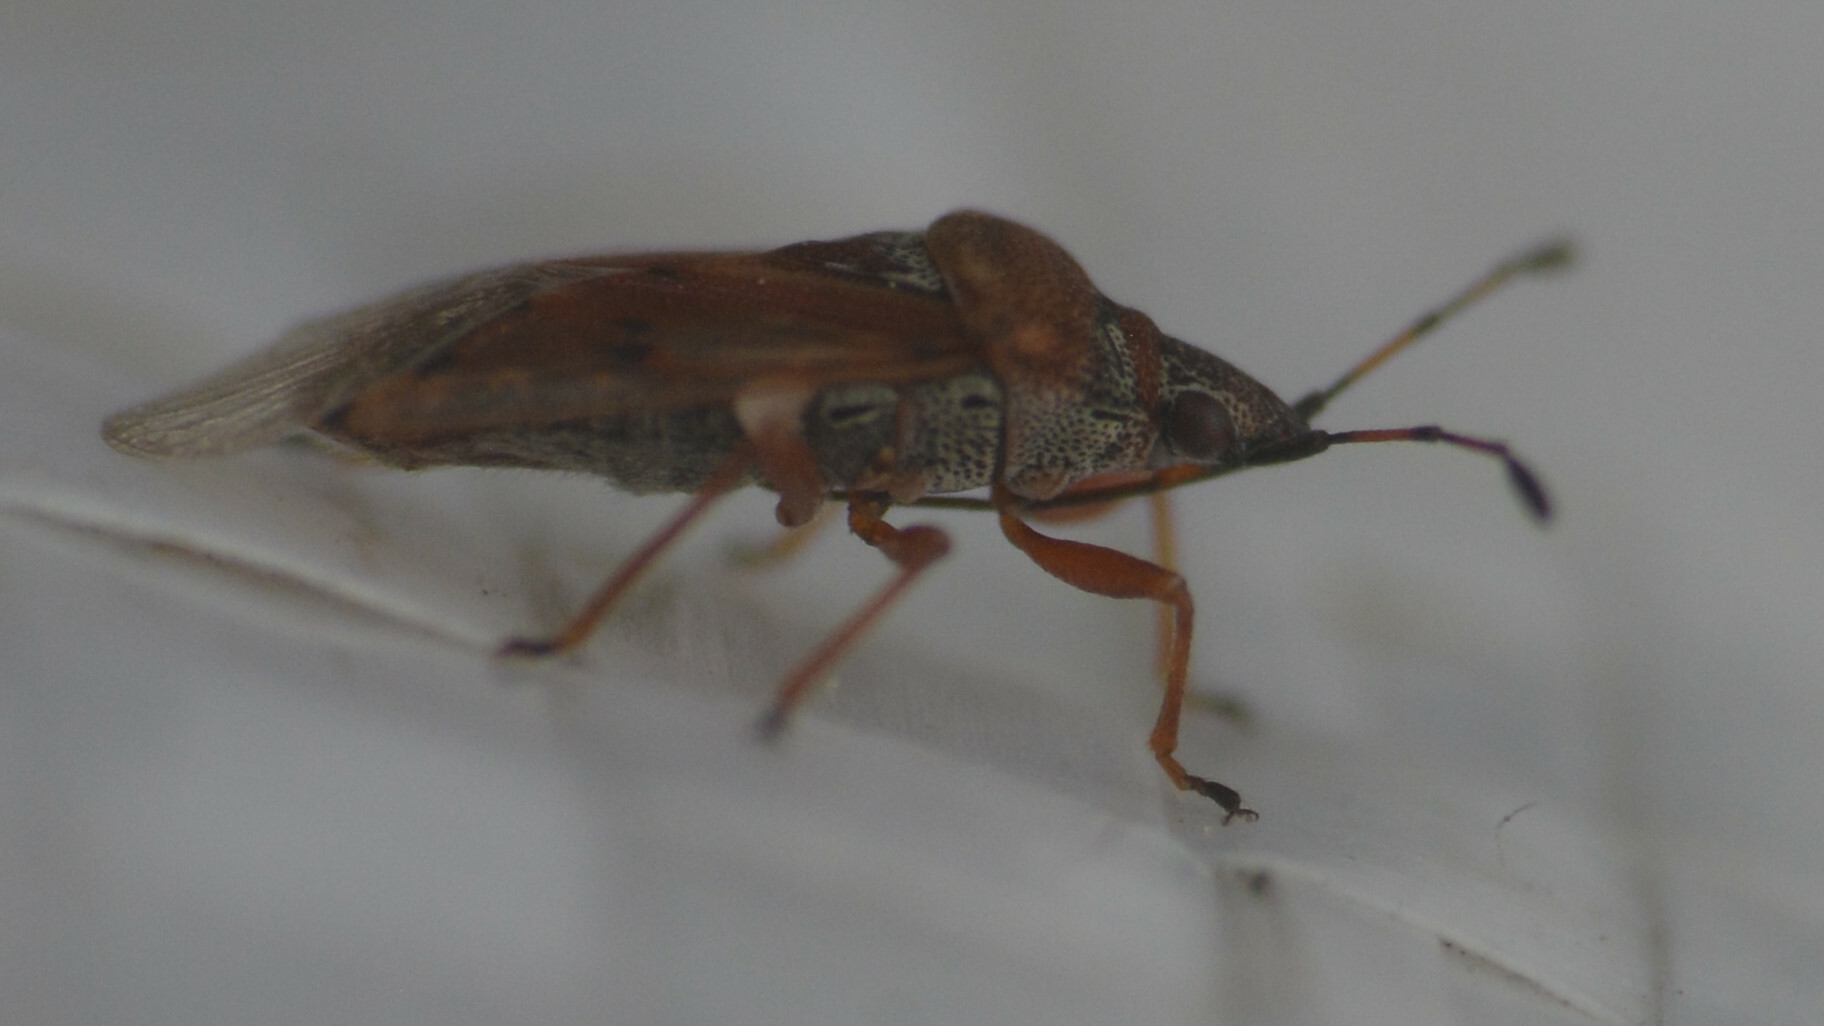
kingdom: Animalia
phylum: Arthropoda
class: Insecta
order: Hemiptera
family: Lygaeidae
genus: Kleidocerys
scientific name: Kleidocerys resedae
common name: Birch catkin bug
